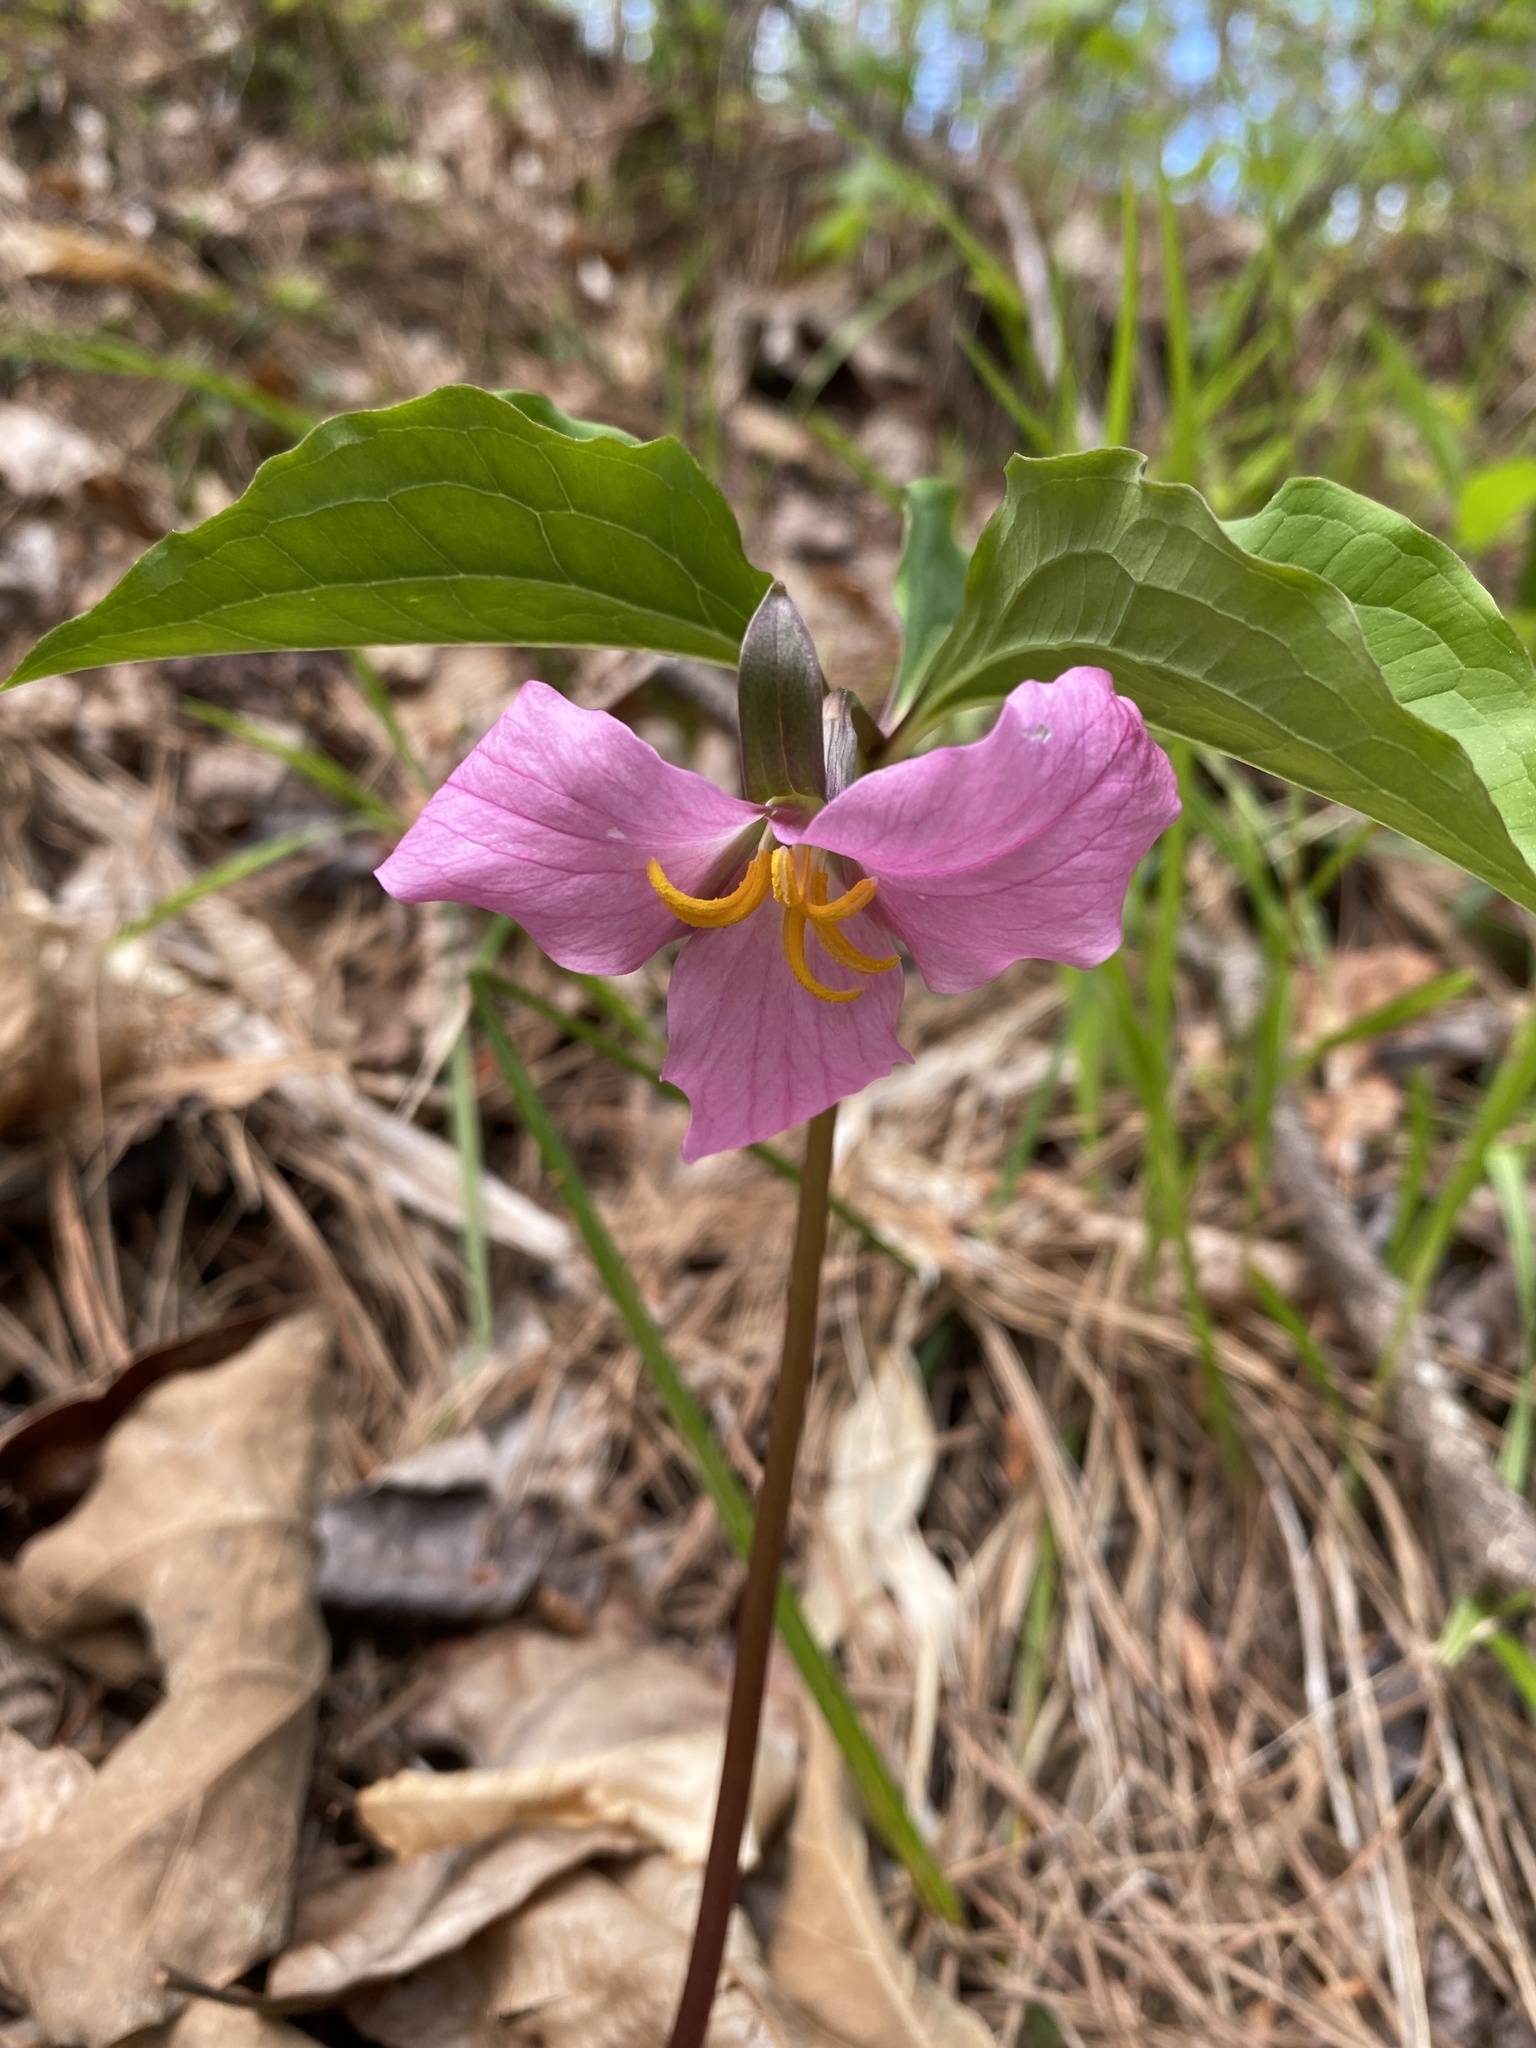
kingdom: Plantae
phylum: Tracheophyta
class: Liliopsida
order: Liliales
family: Melanthiaceae
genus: Trillium
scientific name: Trillium catesbaei
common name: Bashful trillium
